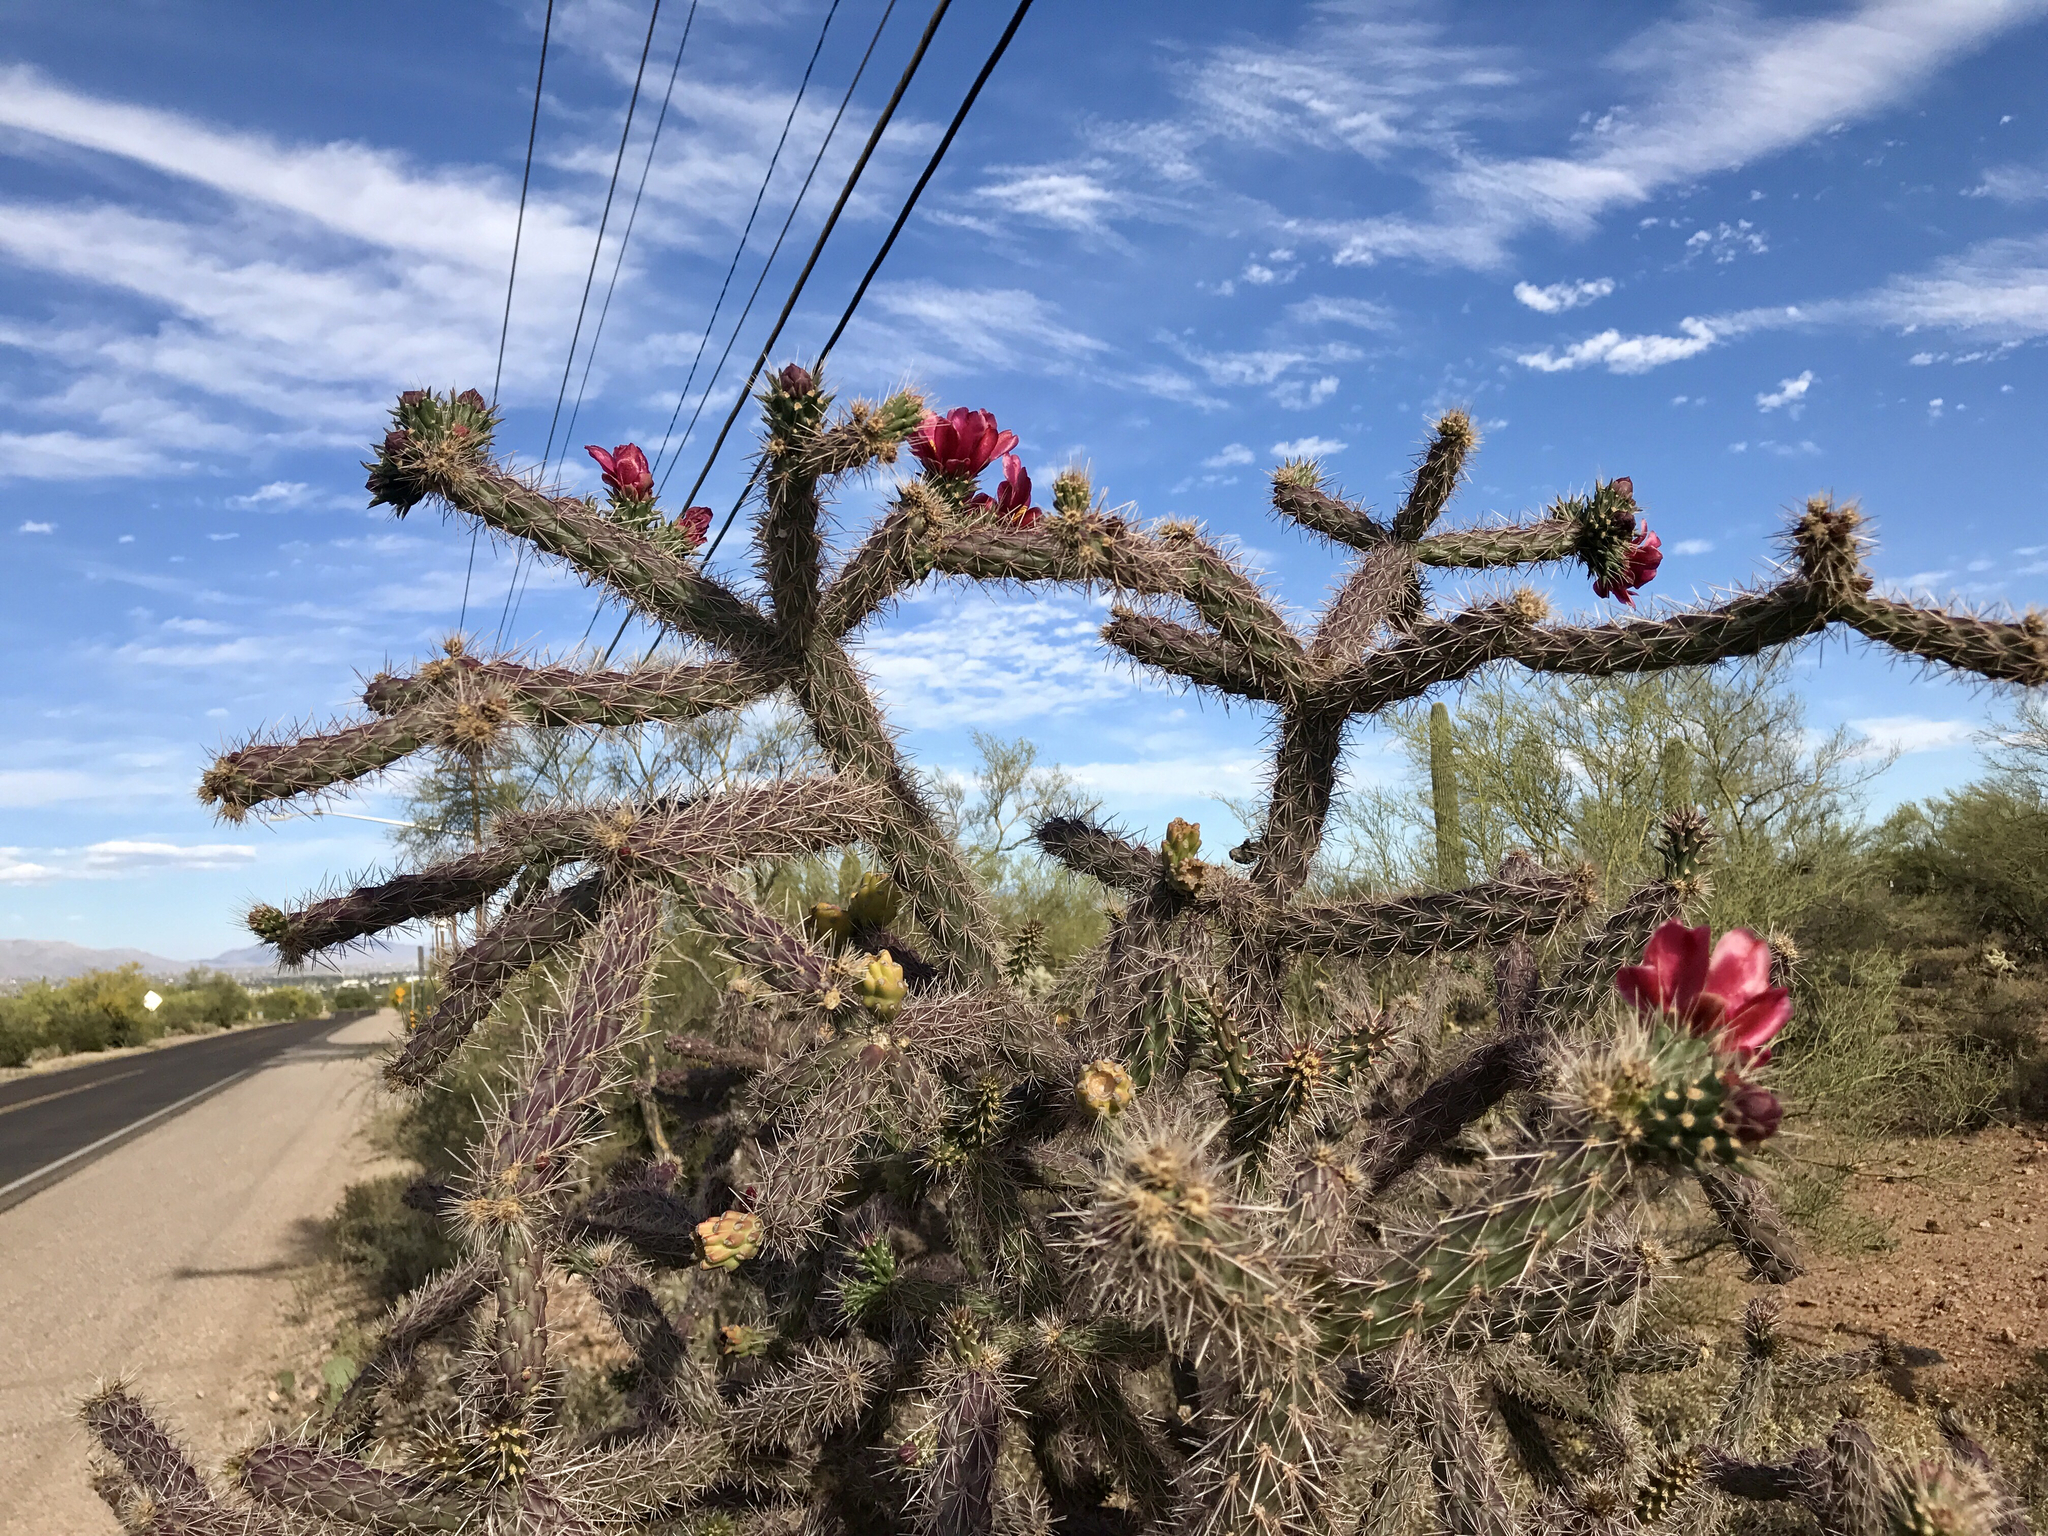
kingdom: Plantae
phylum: Tracheophyta
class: Magnoliopsida
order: Caryophyllales
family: Cactaceae
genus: Cylindropuntia
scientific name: Cylindropuntia thurberi
